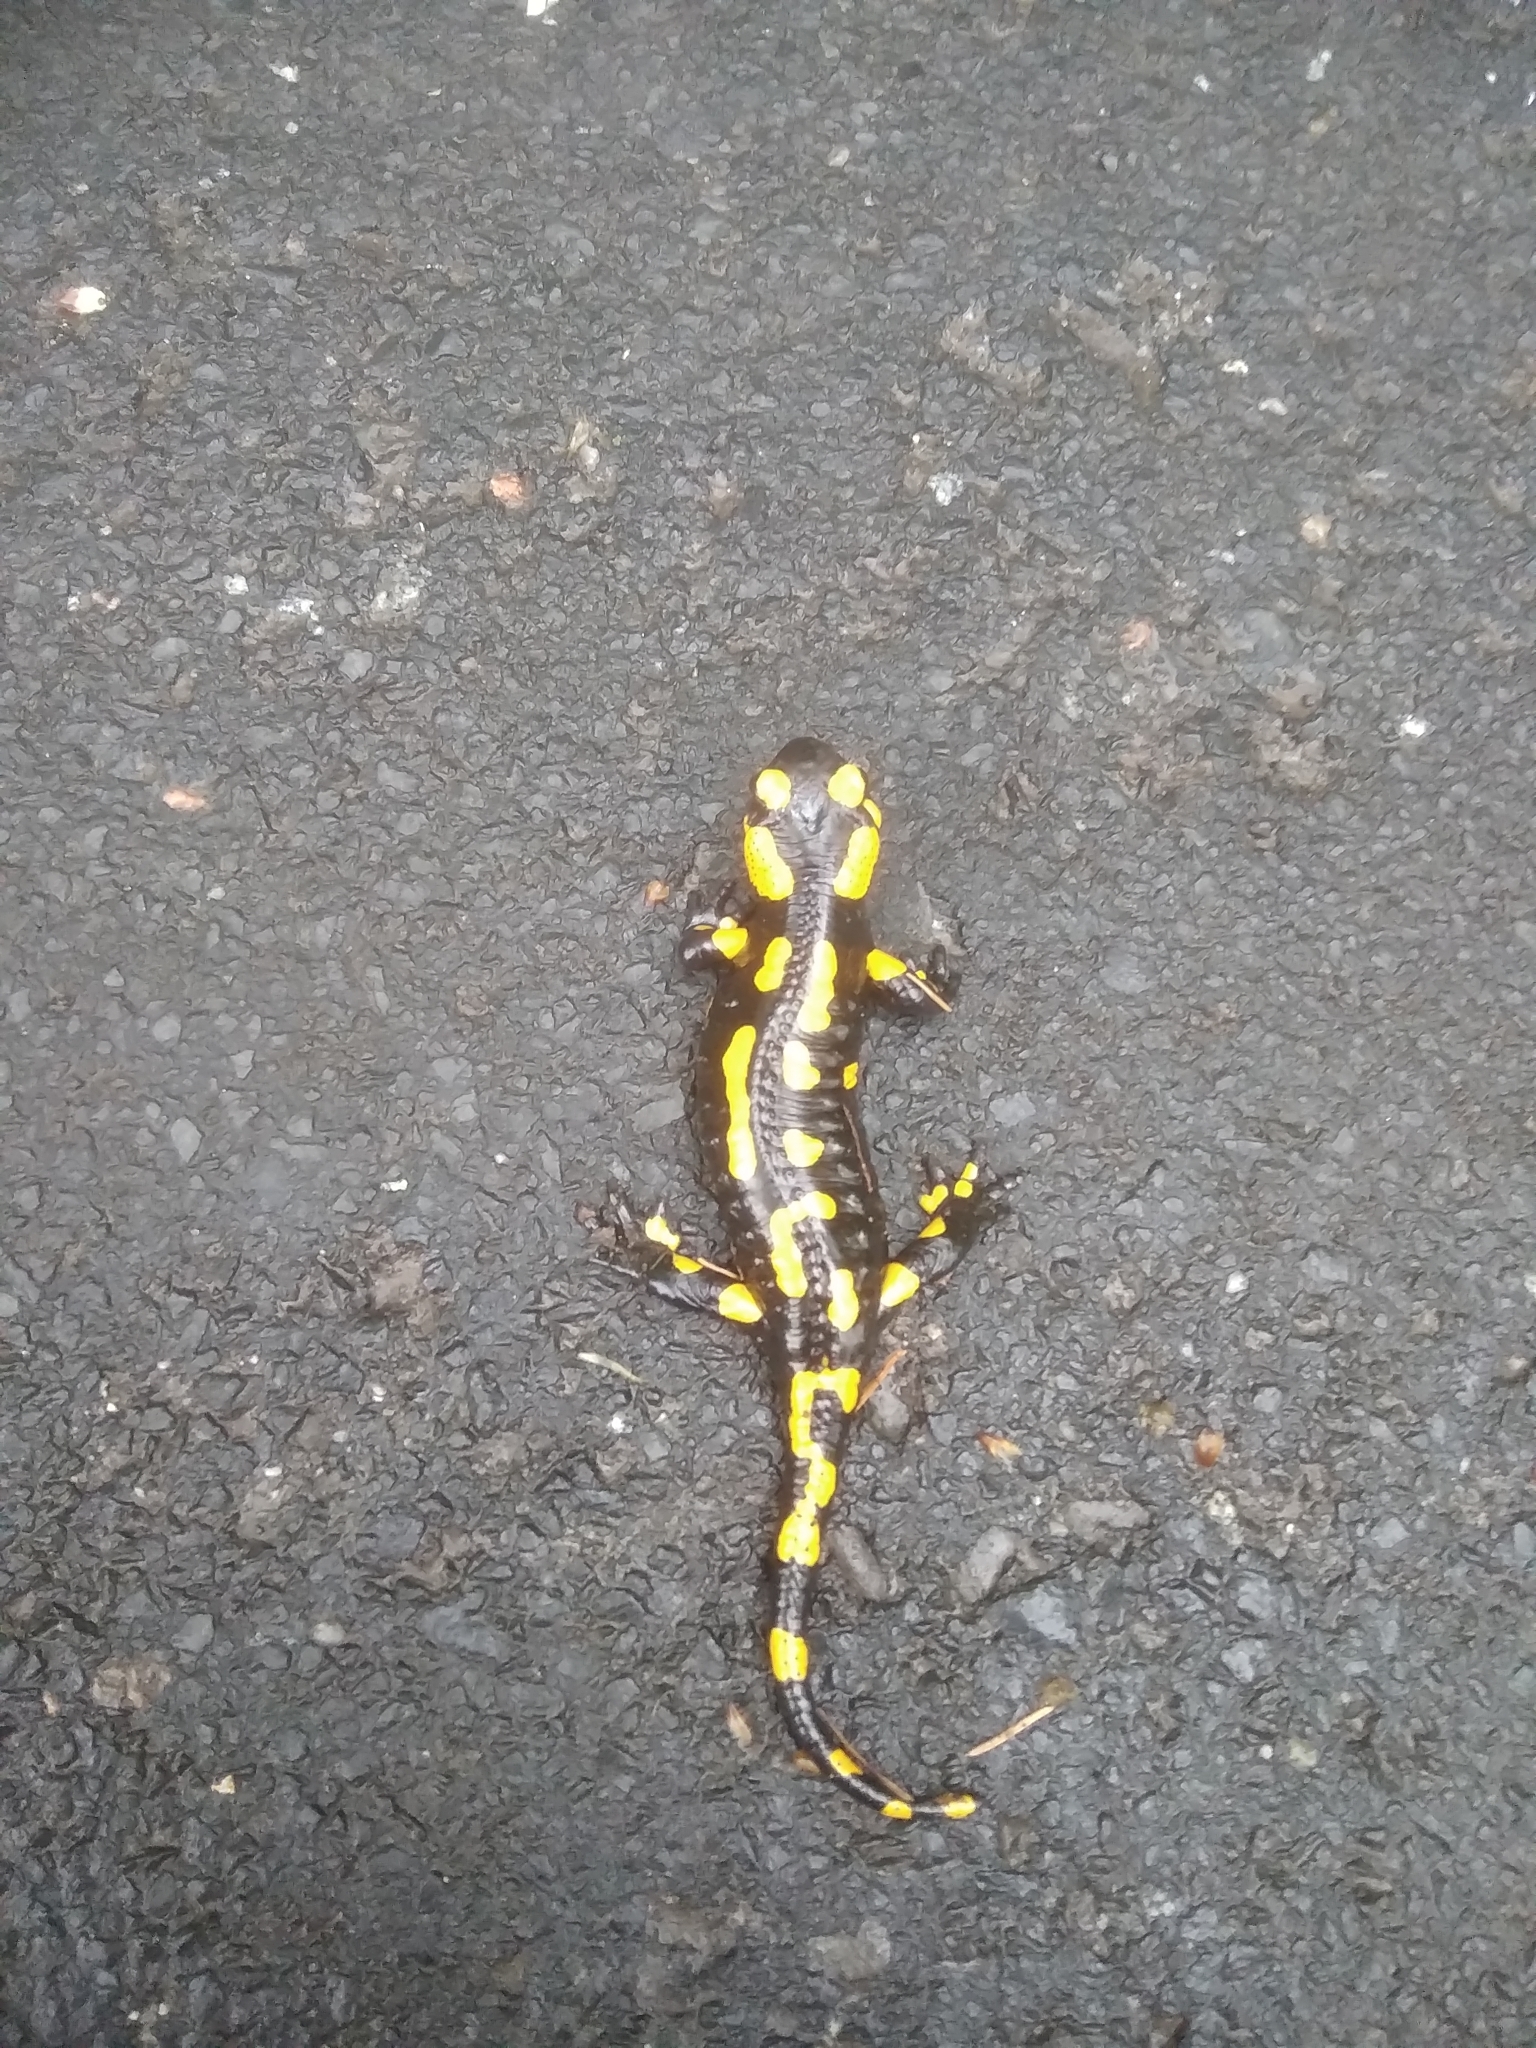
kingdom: Animalia
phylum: Chordata
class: Amphibia
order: Caudata
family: Salamandridae
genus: Salamandra
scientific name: Salamandra salamandra
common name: Fire salamander
